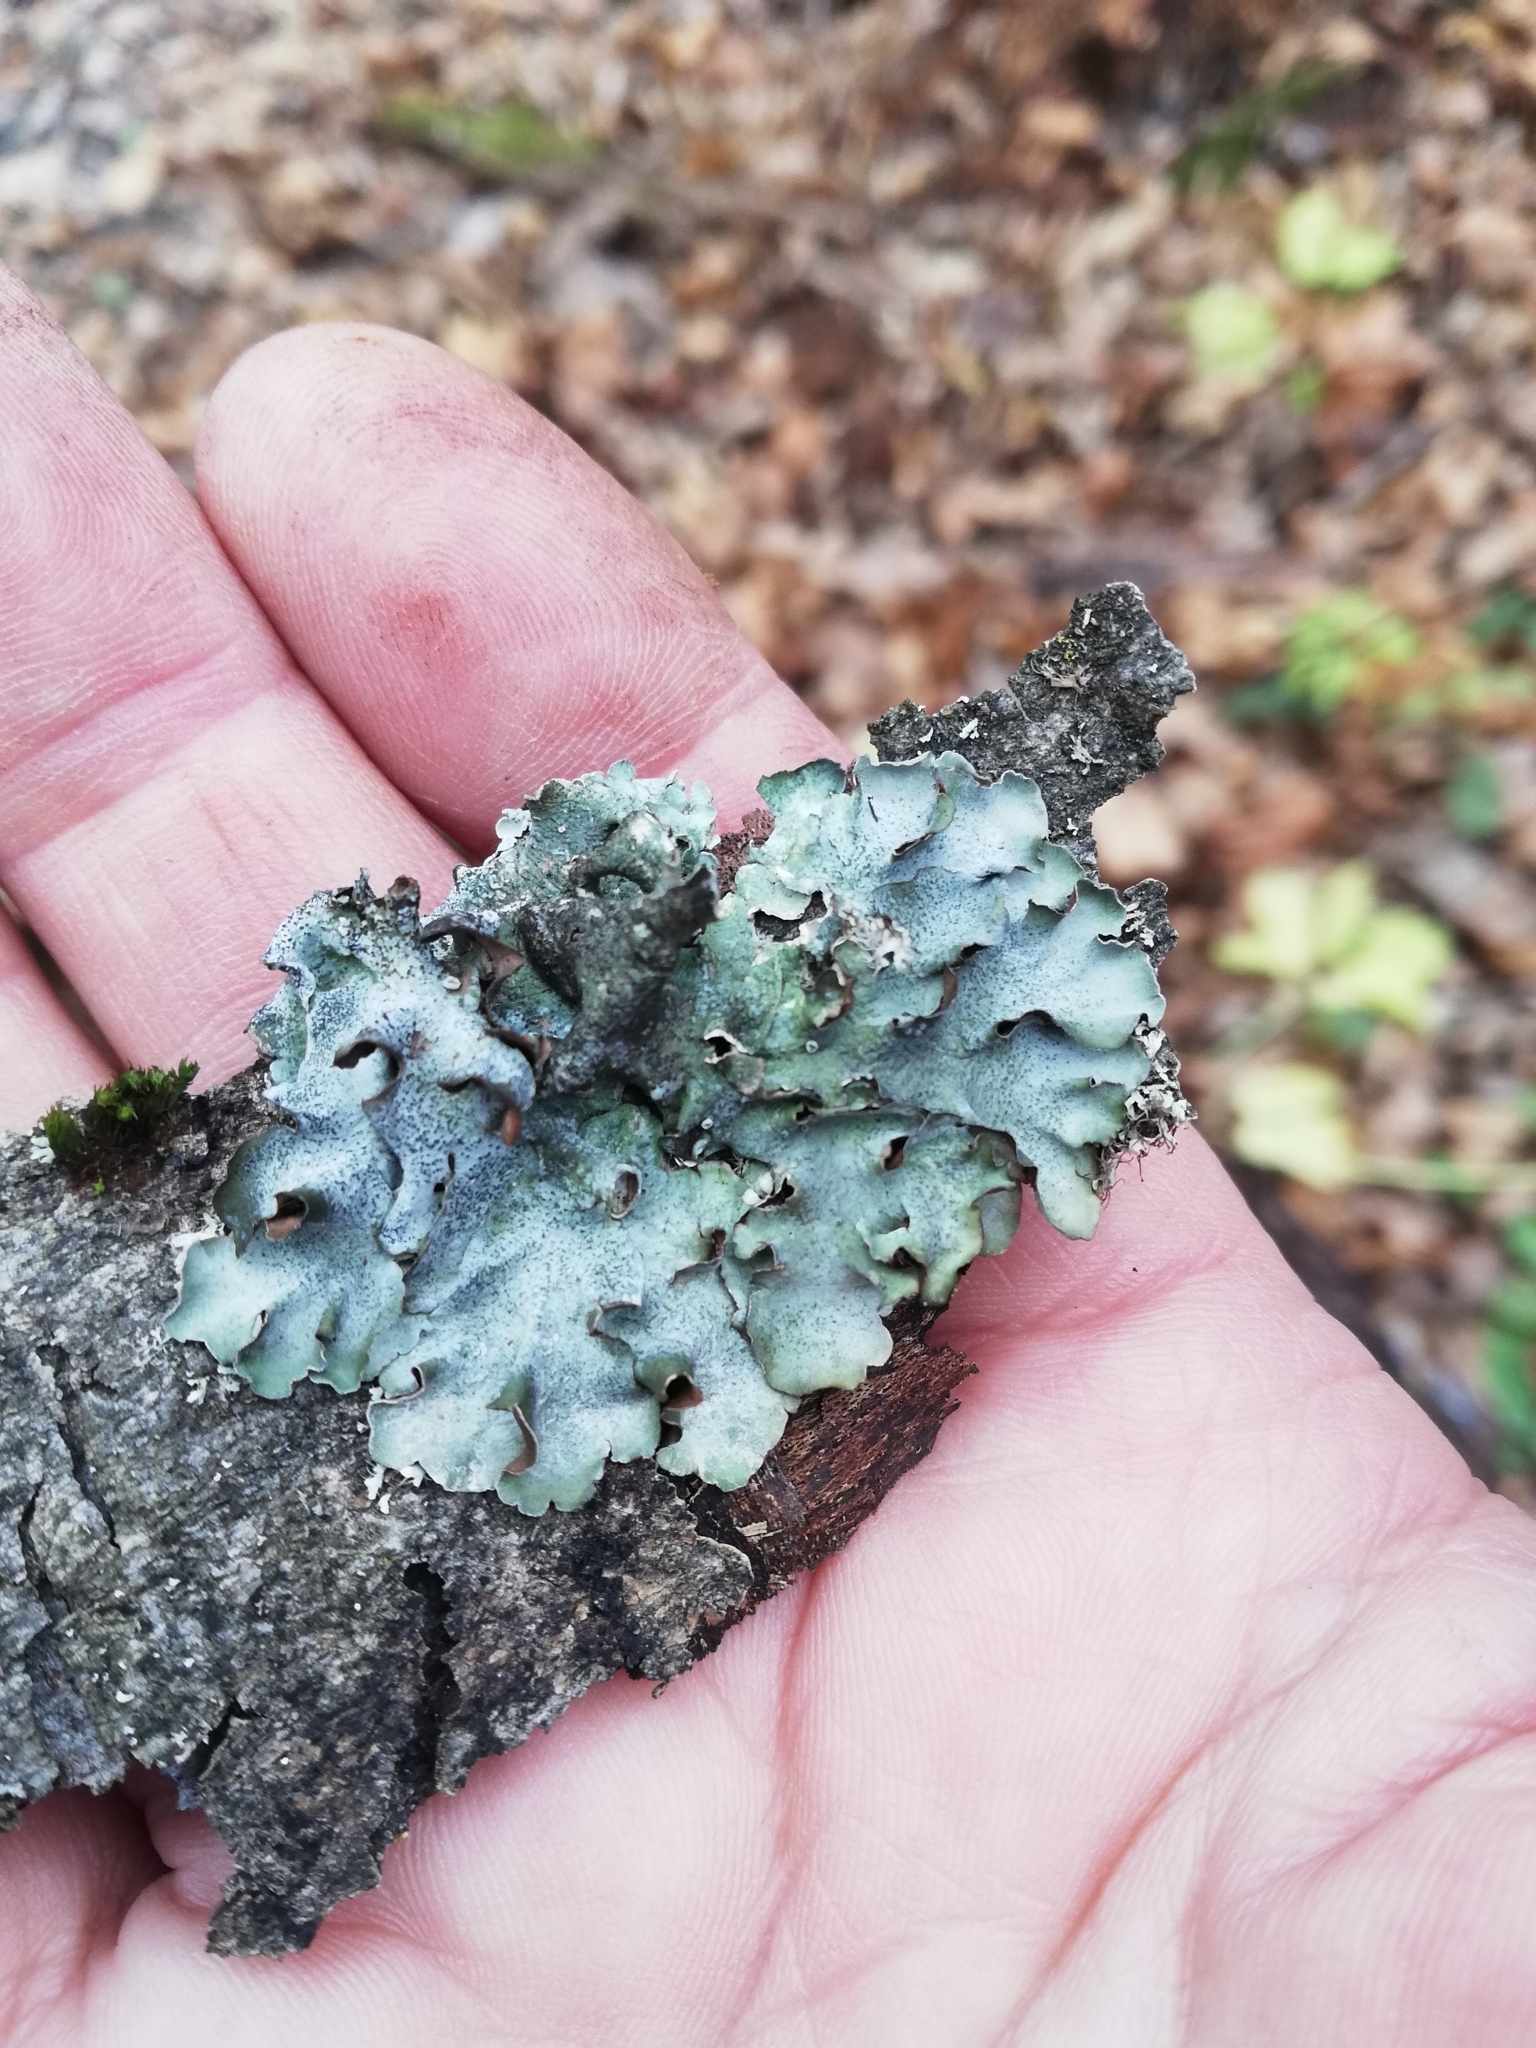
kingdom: Fungi
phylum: Ascomycota
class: Lecanoromycetes
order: Lecanorales
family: Parmeliaceae
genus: Pleurosticta
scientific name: Pleurosticta acetabulum
